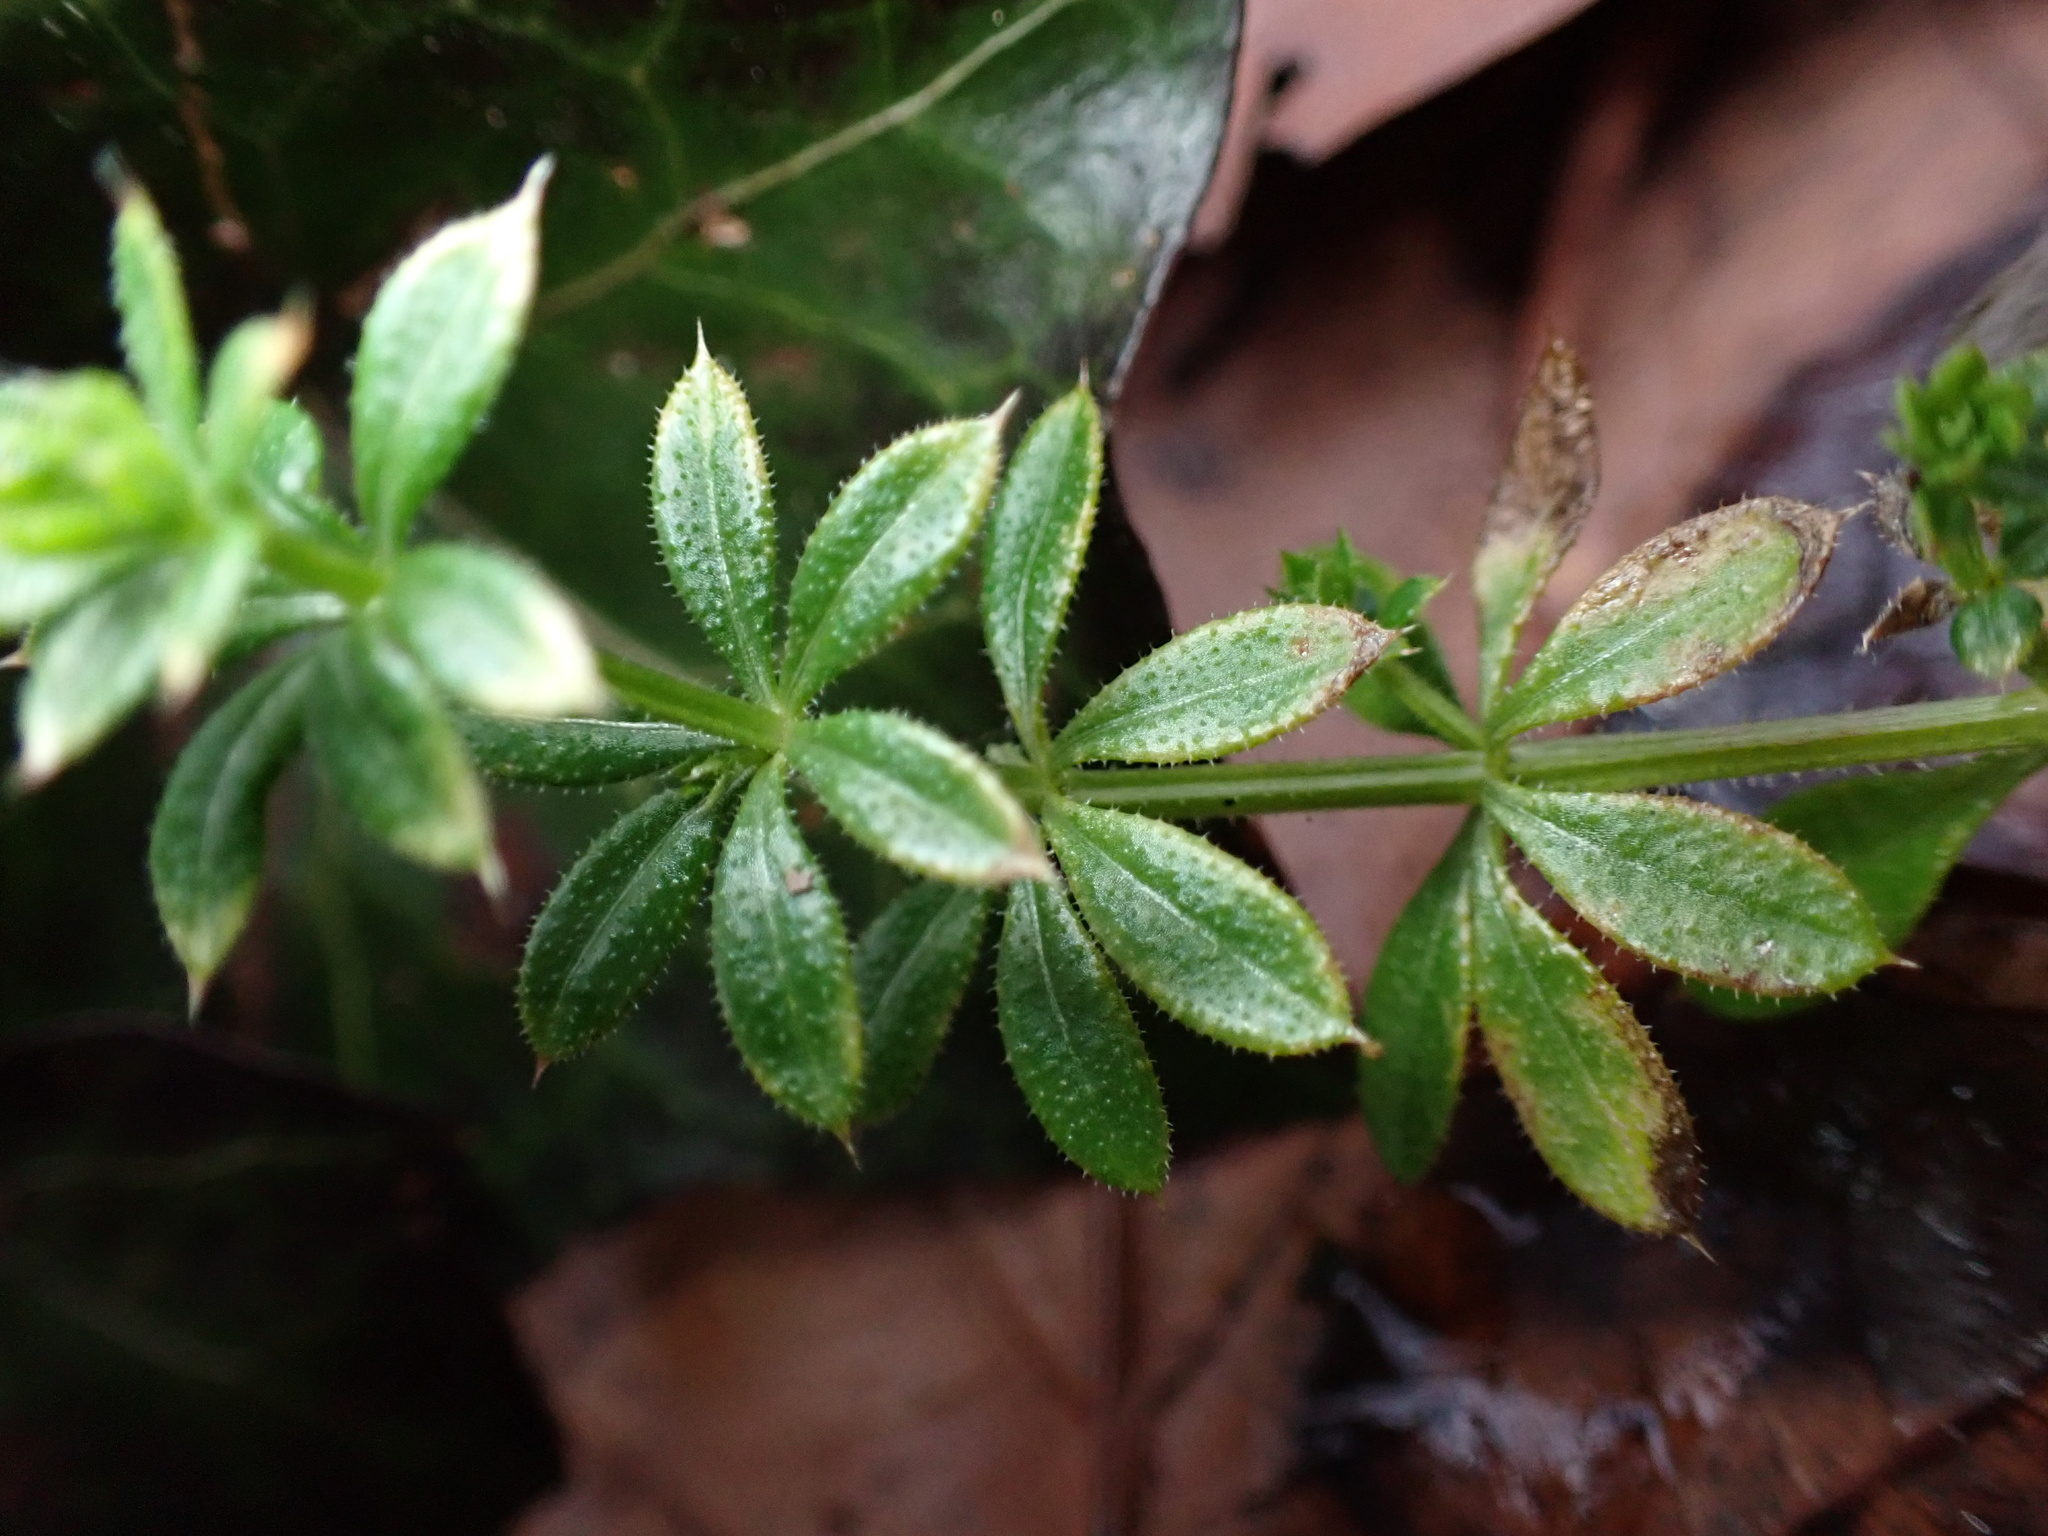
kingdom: Plantae
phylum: Tracheophyta
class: Magnoliopsida
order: Gentianales
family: Rubiaceae
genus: Galium
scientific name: Galium aparine
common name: Cleavers
